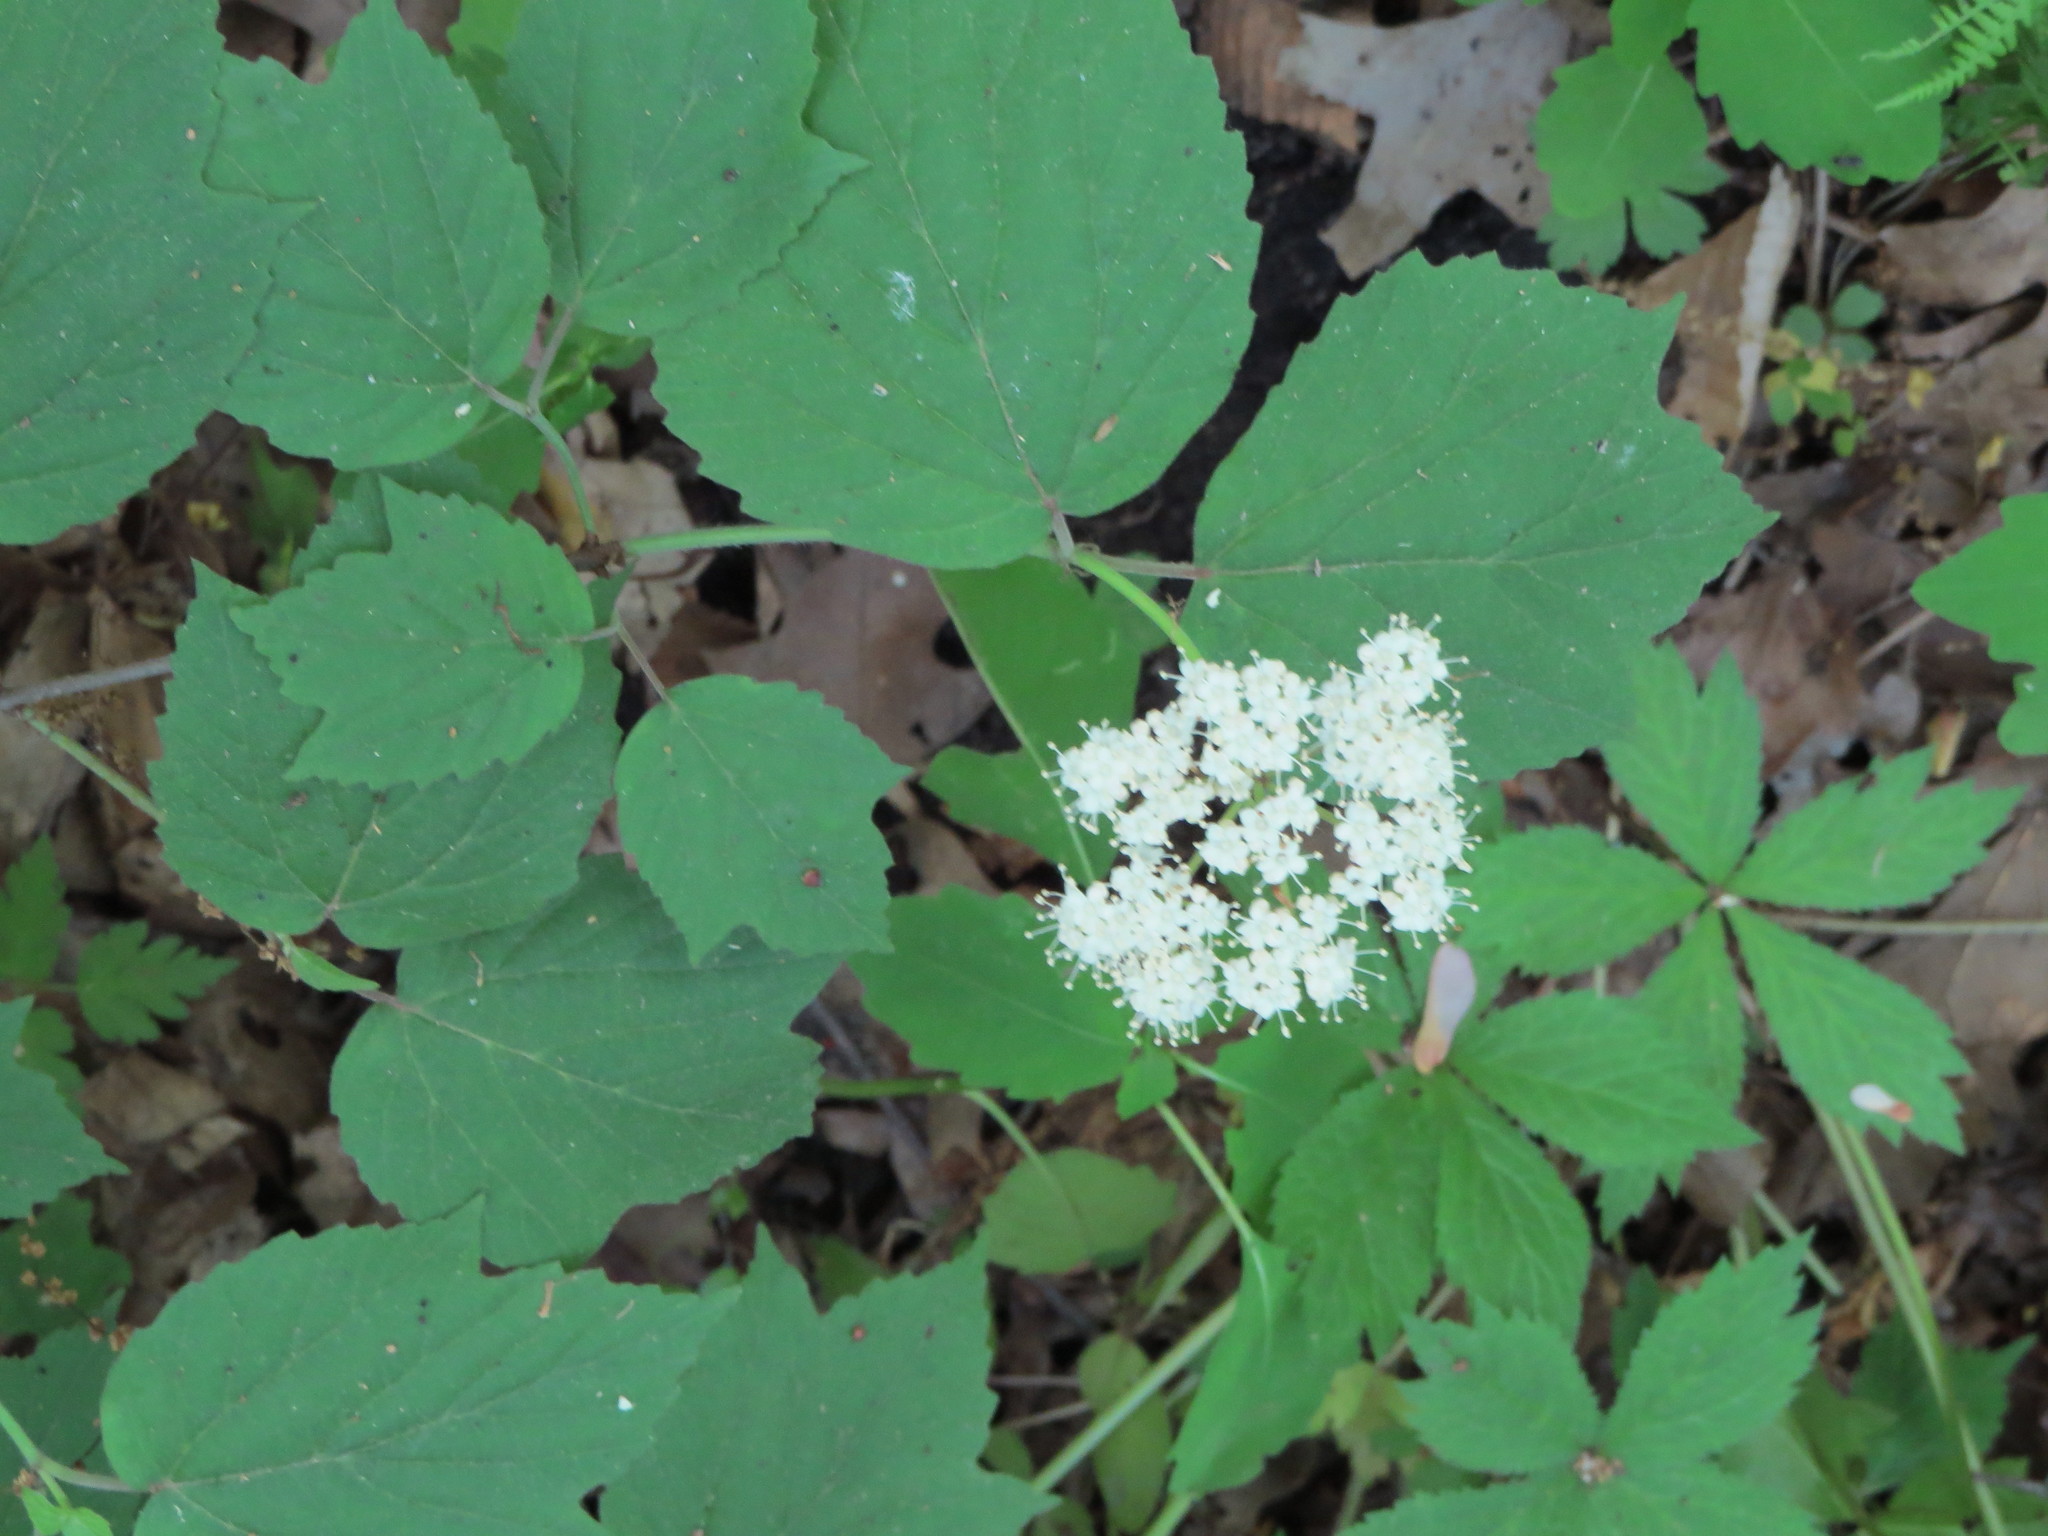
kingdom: Plantae
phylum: Tracheophyta
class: Magnoliopsida
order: Dipsacales
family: Viburnaceae
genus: Viburnum
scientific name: Viburnum acerifolium
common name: Dockmackie
